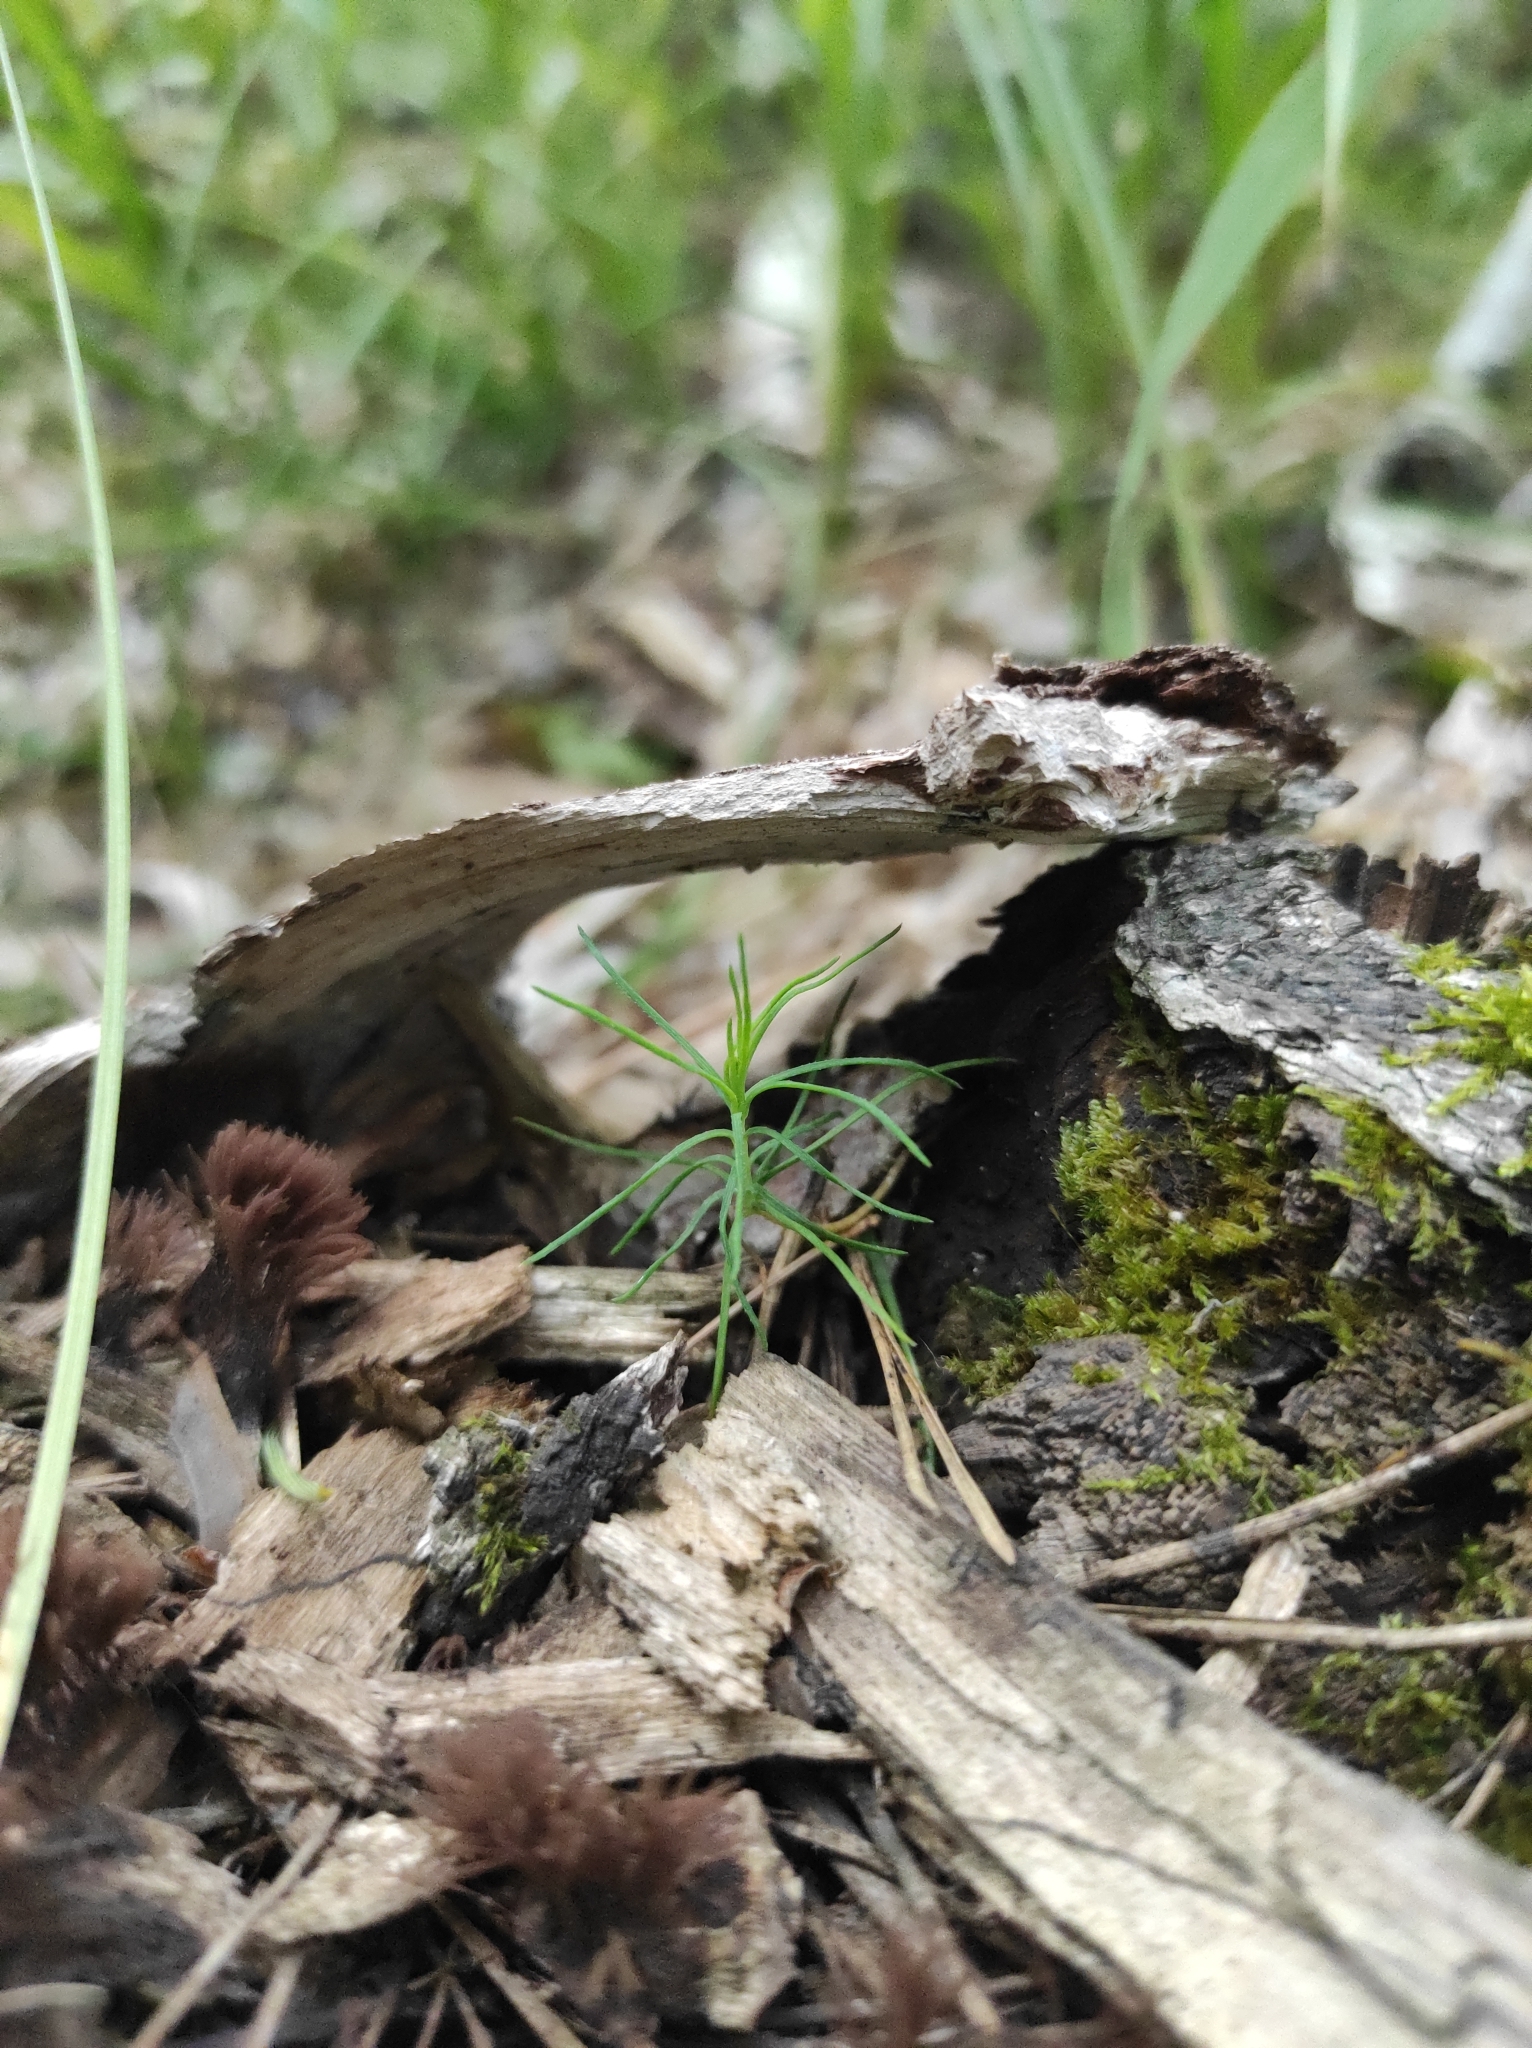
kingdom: Plantae
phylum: Tracheophyta
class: Pinopsida
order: Pinales
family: Pinaceae
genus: Pinus
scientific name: Pinus sylvestris
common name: Scots pine
